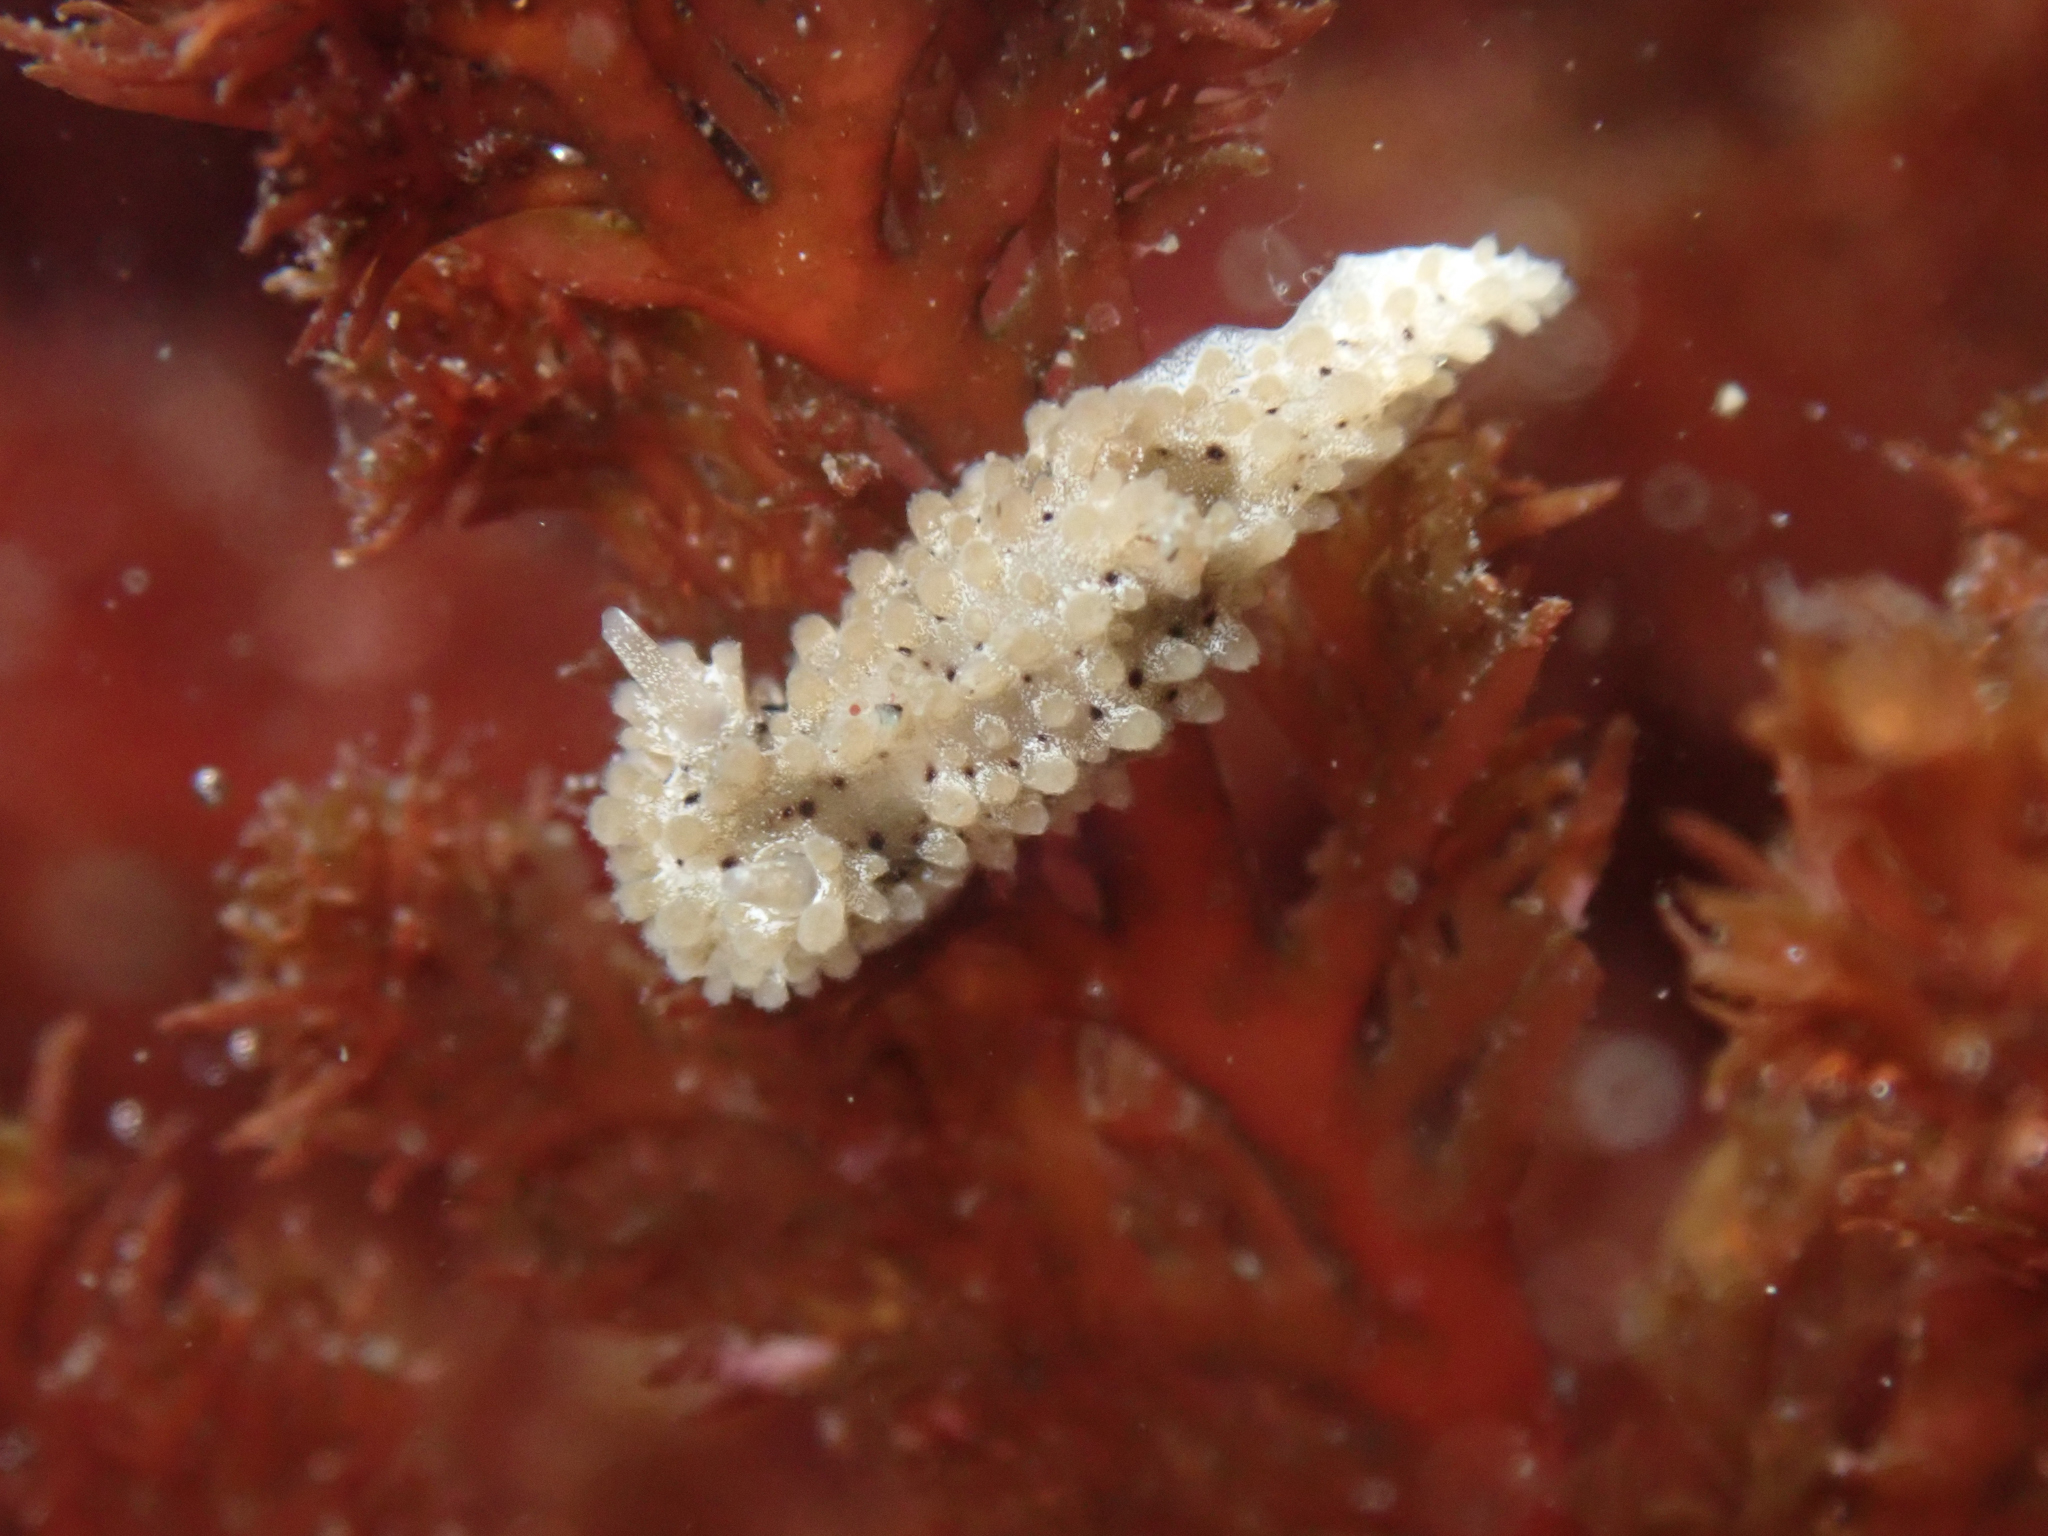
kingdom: Animalia
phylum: Mollusca
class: Gastropoda
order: Nudibranchia
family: Aegiridae
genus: Aegires
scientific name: Aegires albopunctatus
